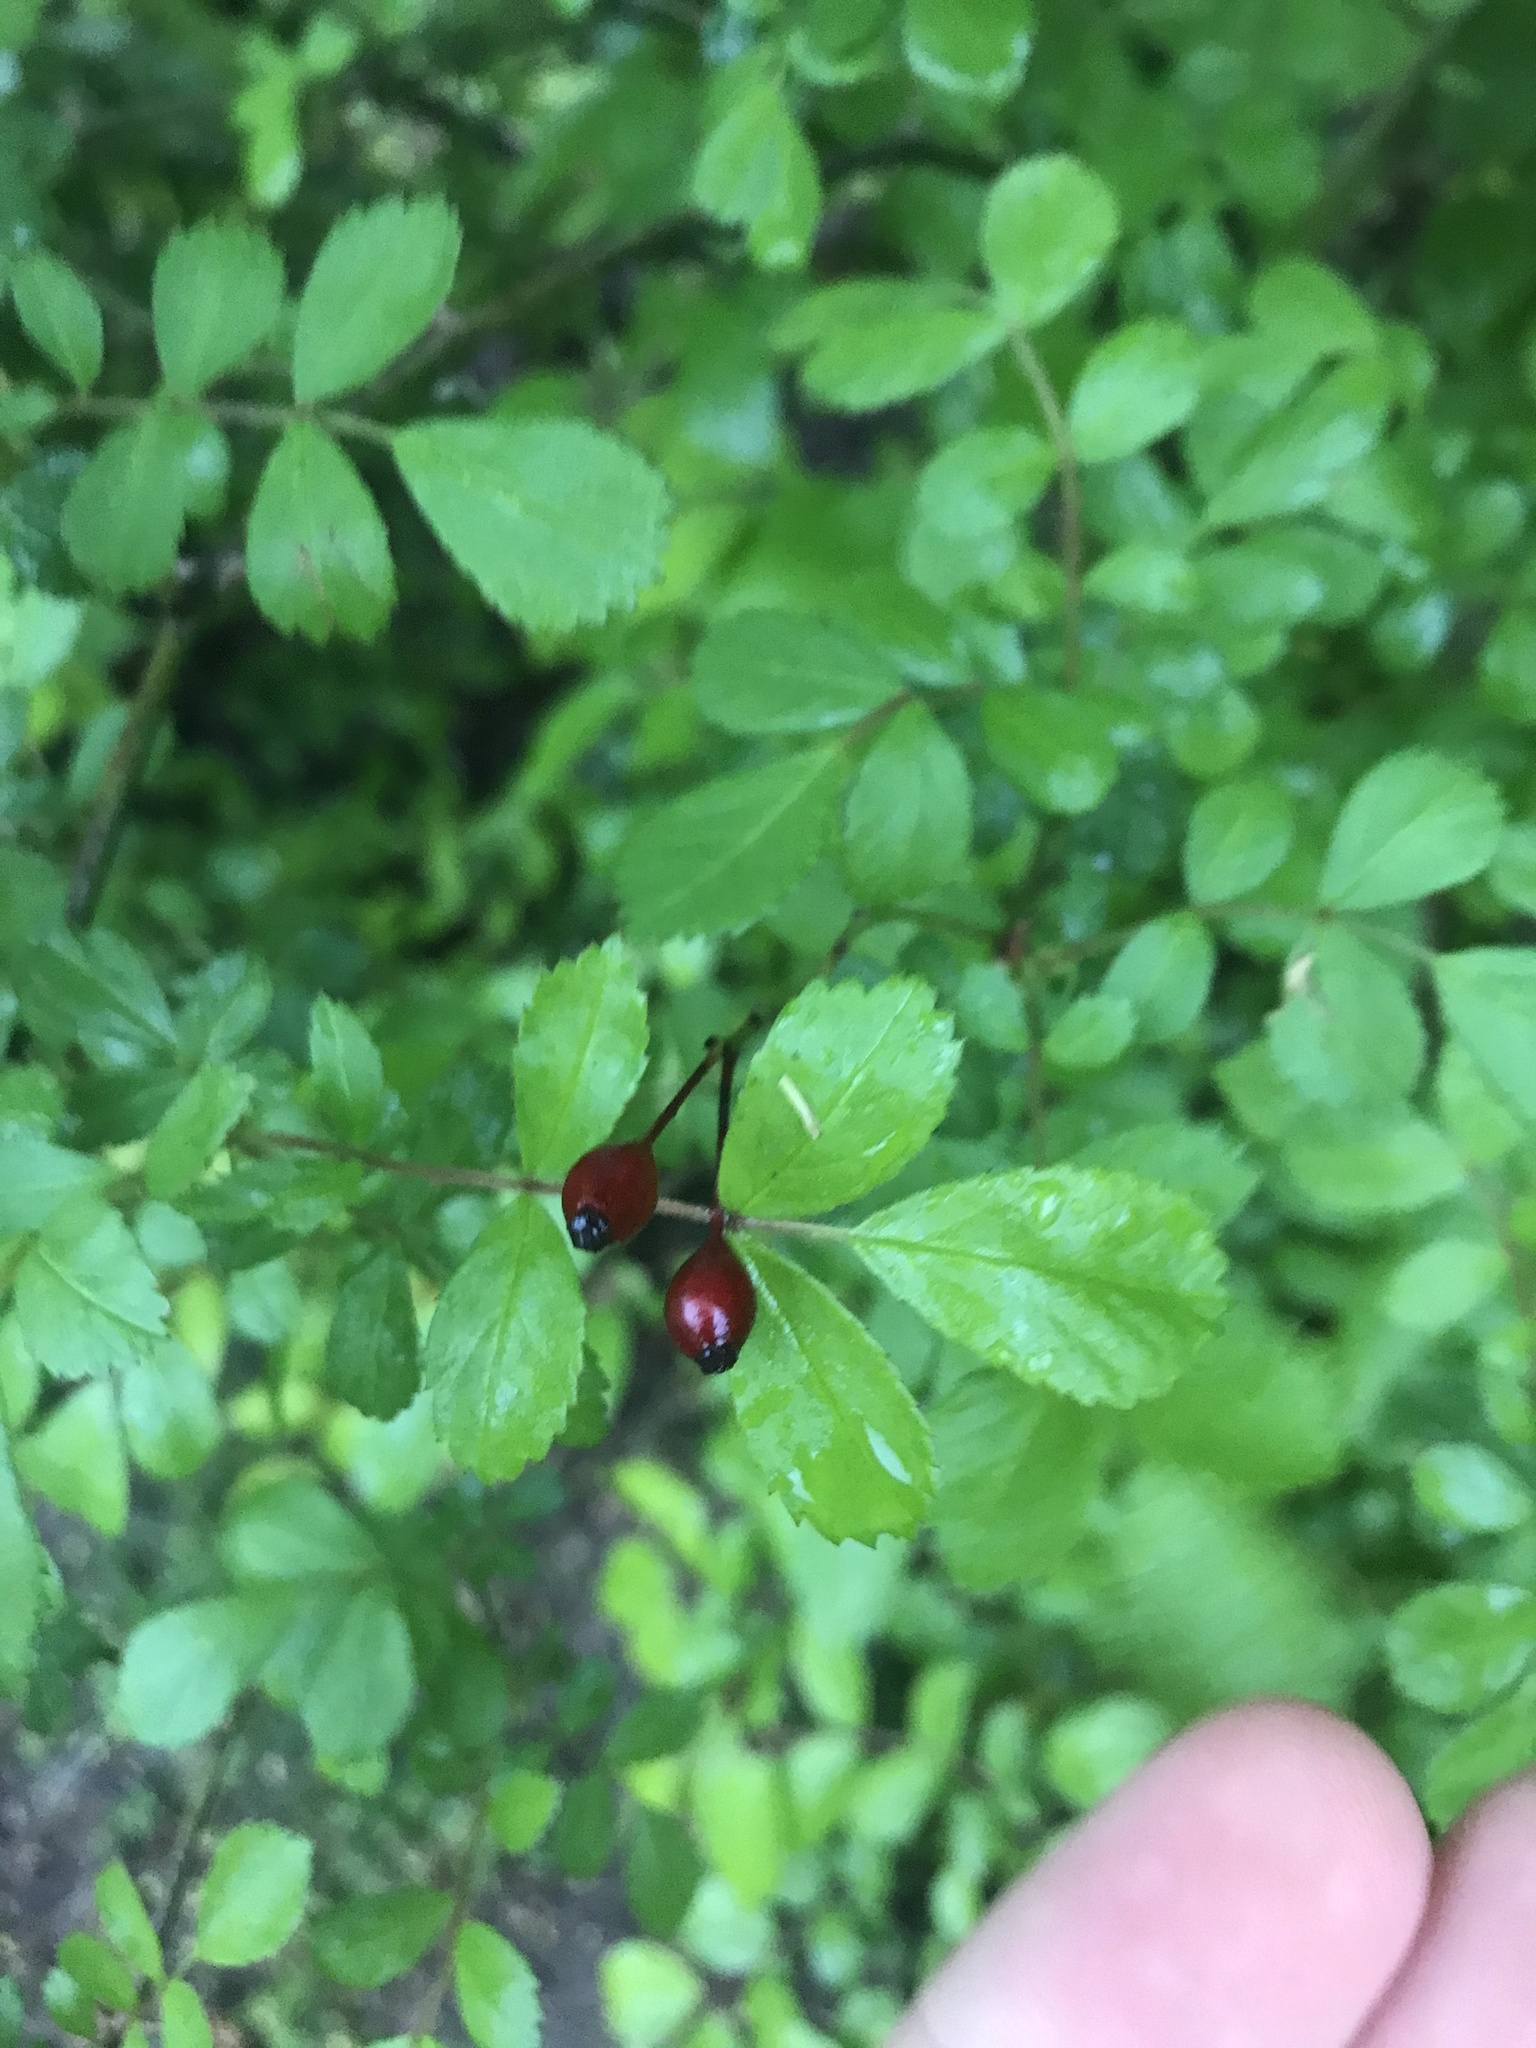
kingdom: Plantae
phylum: Tracheophyta
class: Magnoliopsida
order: Rosales
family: Rosaceae
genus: Rosa
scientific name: Rosa multiflora
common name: Multiflora rose
